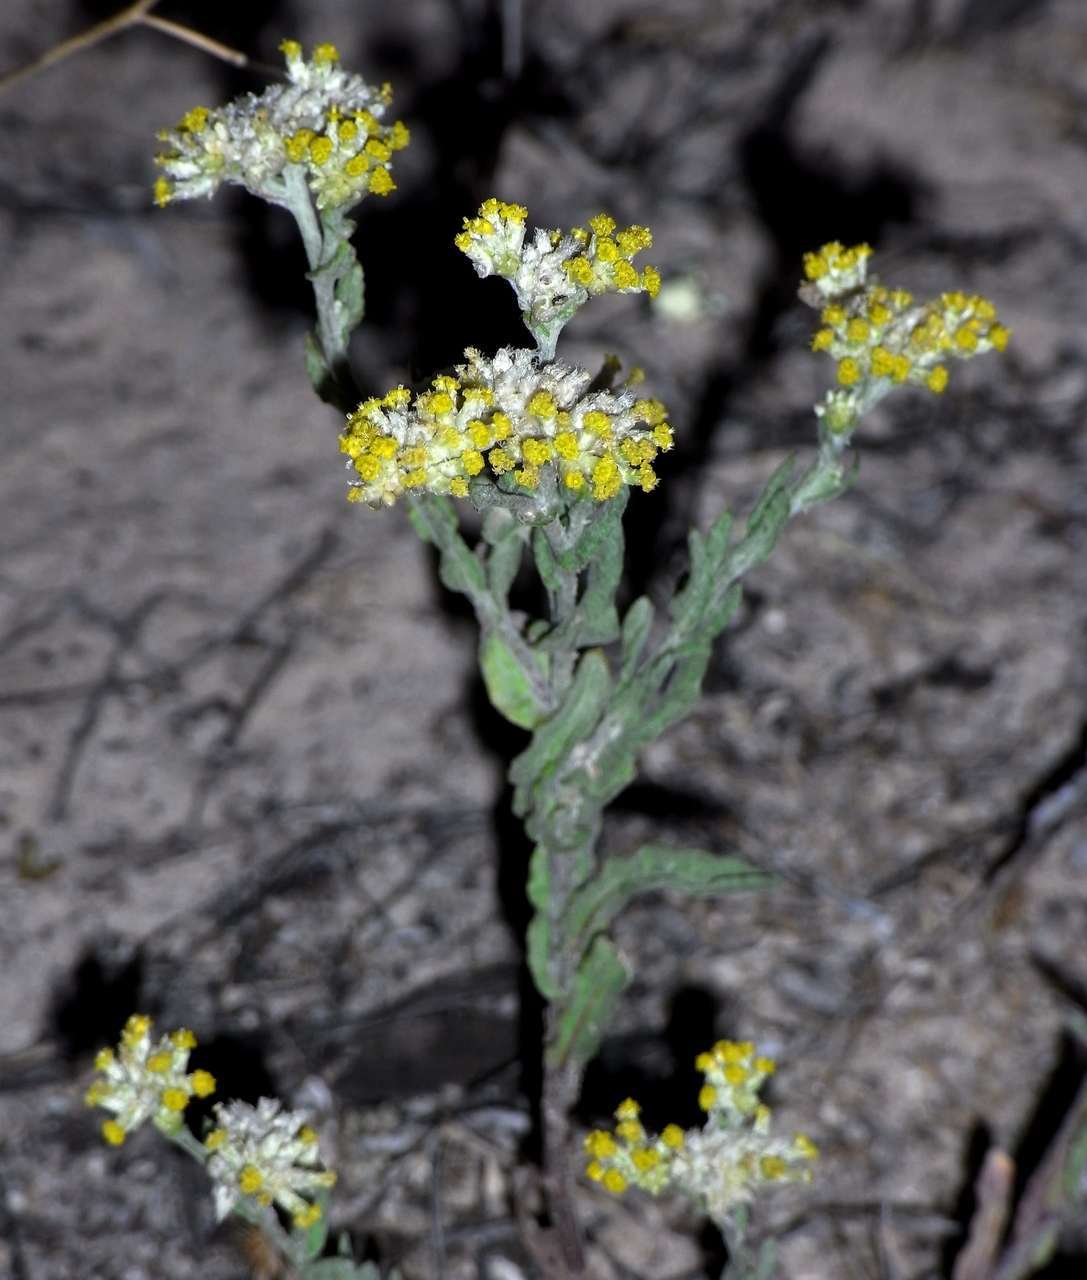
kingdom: Plantae
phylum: Tracheophyta
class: Magnoliopsida
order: Asterales
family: Asteraceae
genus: Rhodanthe
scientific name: Rhodanthe moschata
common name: Musk sunray
